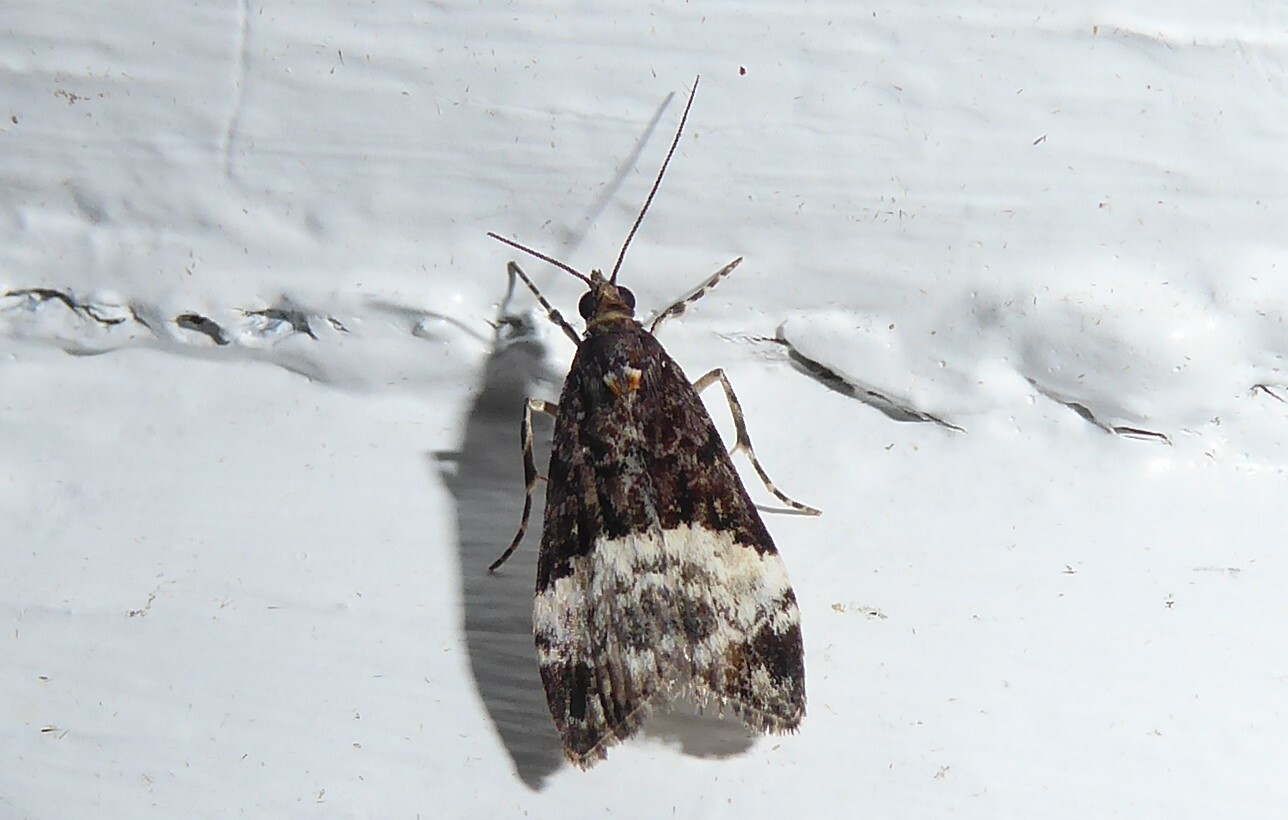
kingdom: Animalia
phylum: Arthropoda
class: Insecta
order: Lepidoptera
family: Crambidae
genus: Scoparia
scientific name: Scoparia minusculalis
